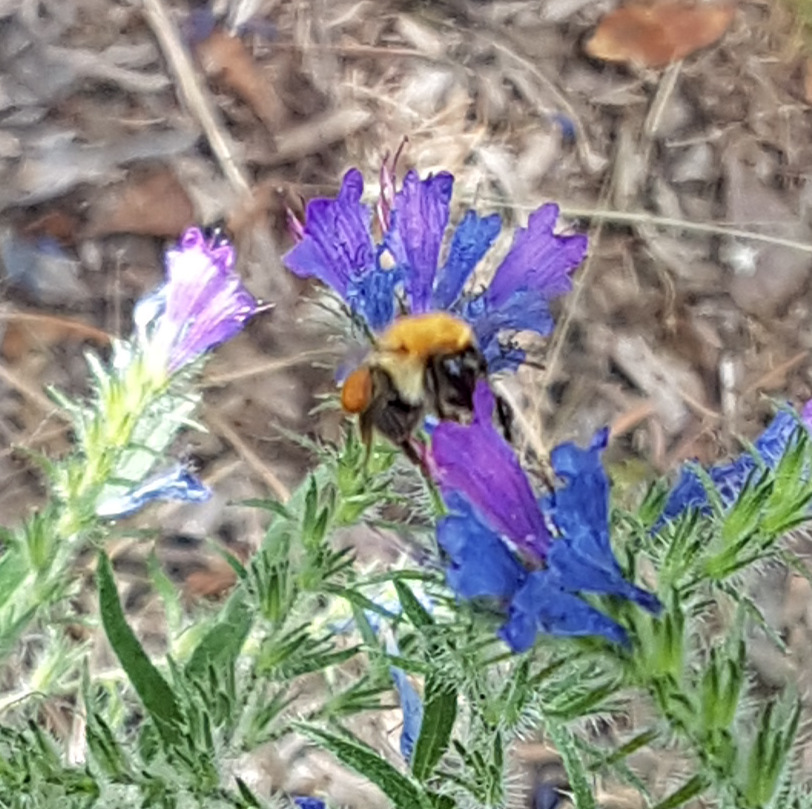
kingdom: Animalia
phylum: Arthropoda
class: Insecta
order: Hymenoptera
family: Apidae
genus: Bombus
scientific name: Bombus pascuorum
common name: Common carder bee
